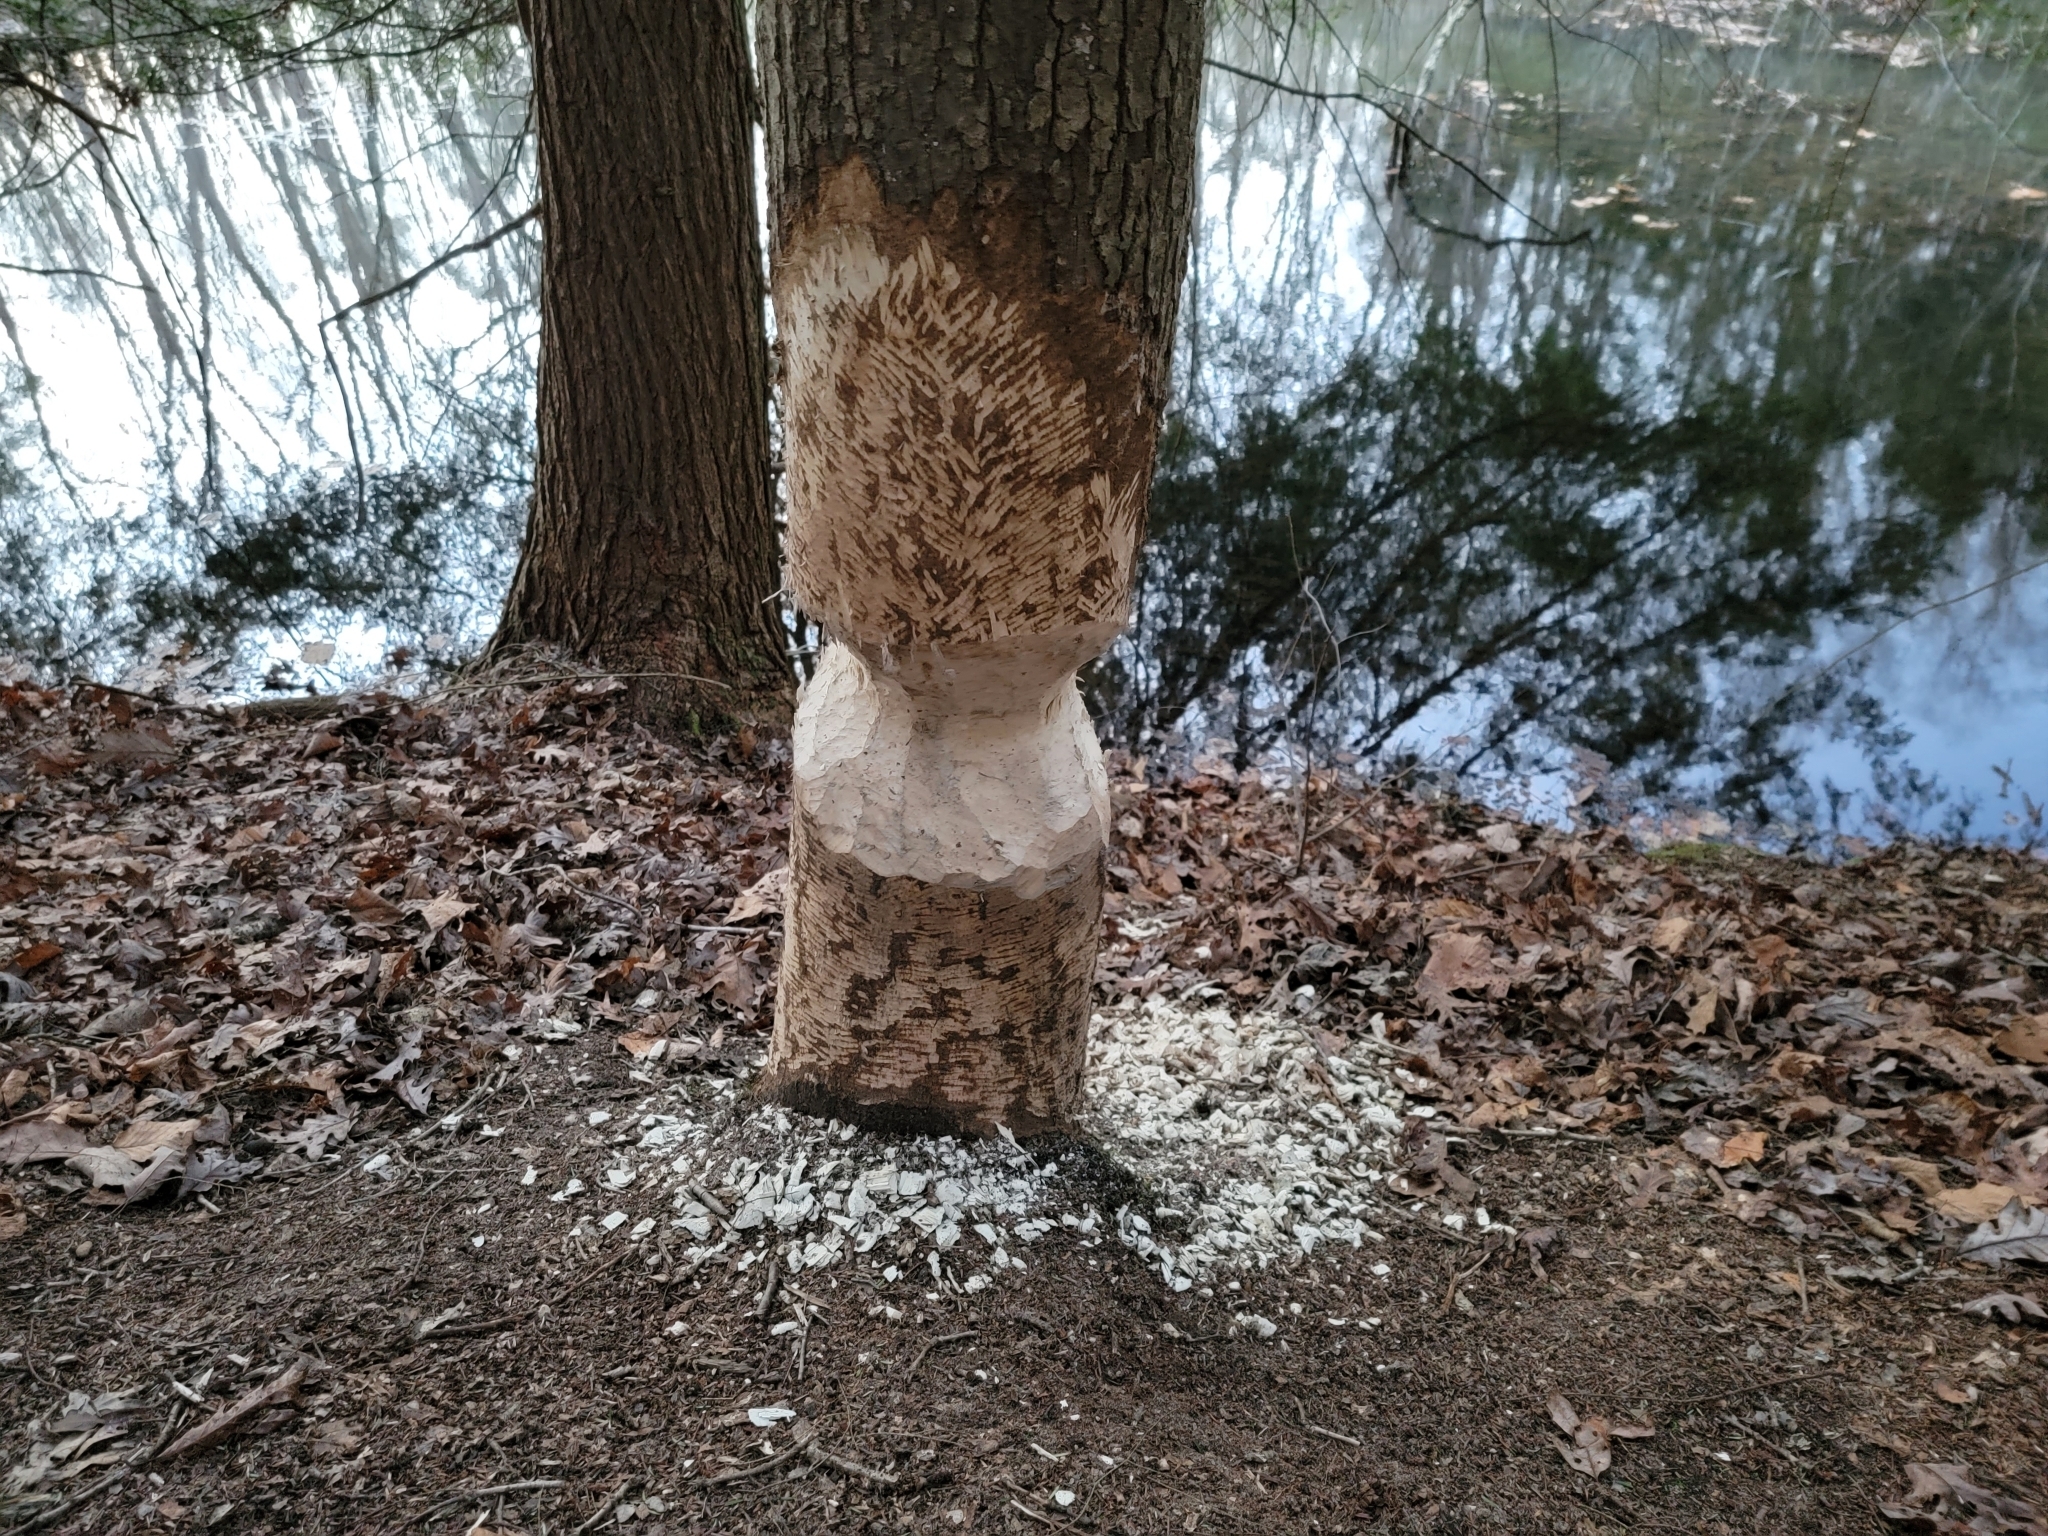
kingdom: Animalia
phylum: Chordata
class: Mammalia
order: Rodentia
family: Castoridae
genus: Castor
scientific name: Castor canadensis
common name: American beaver
